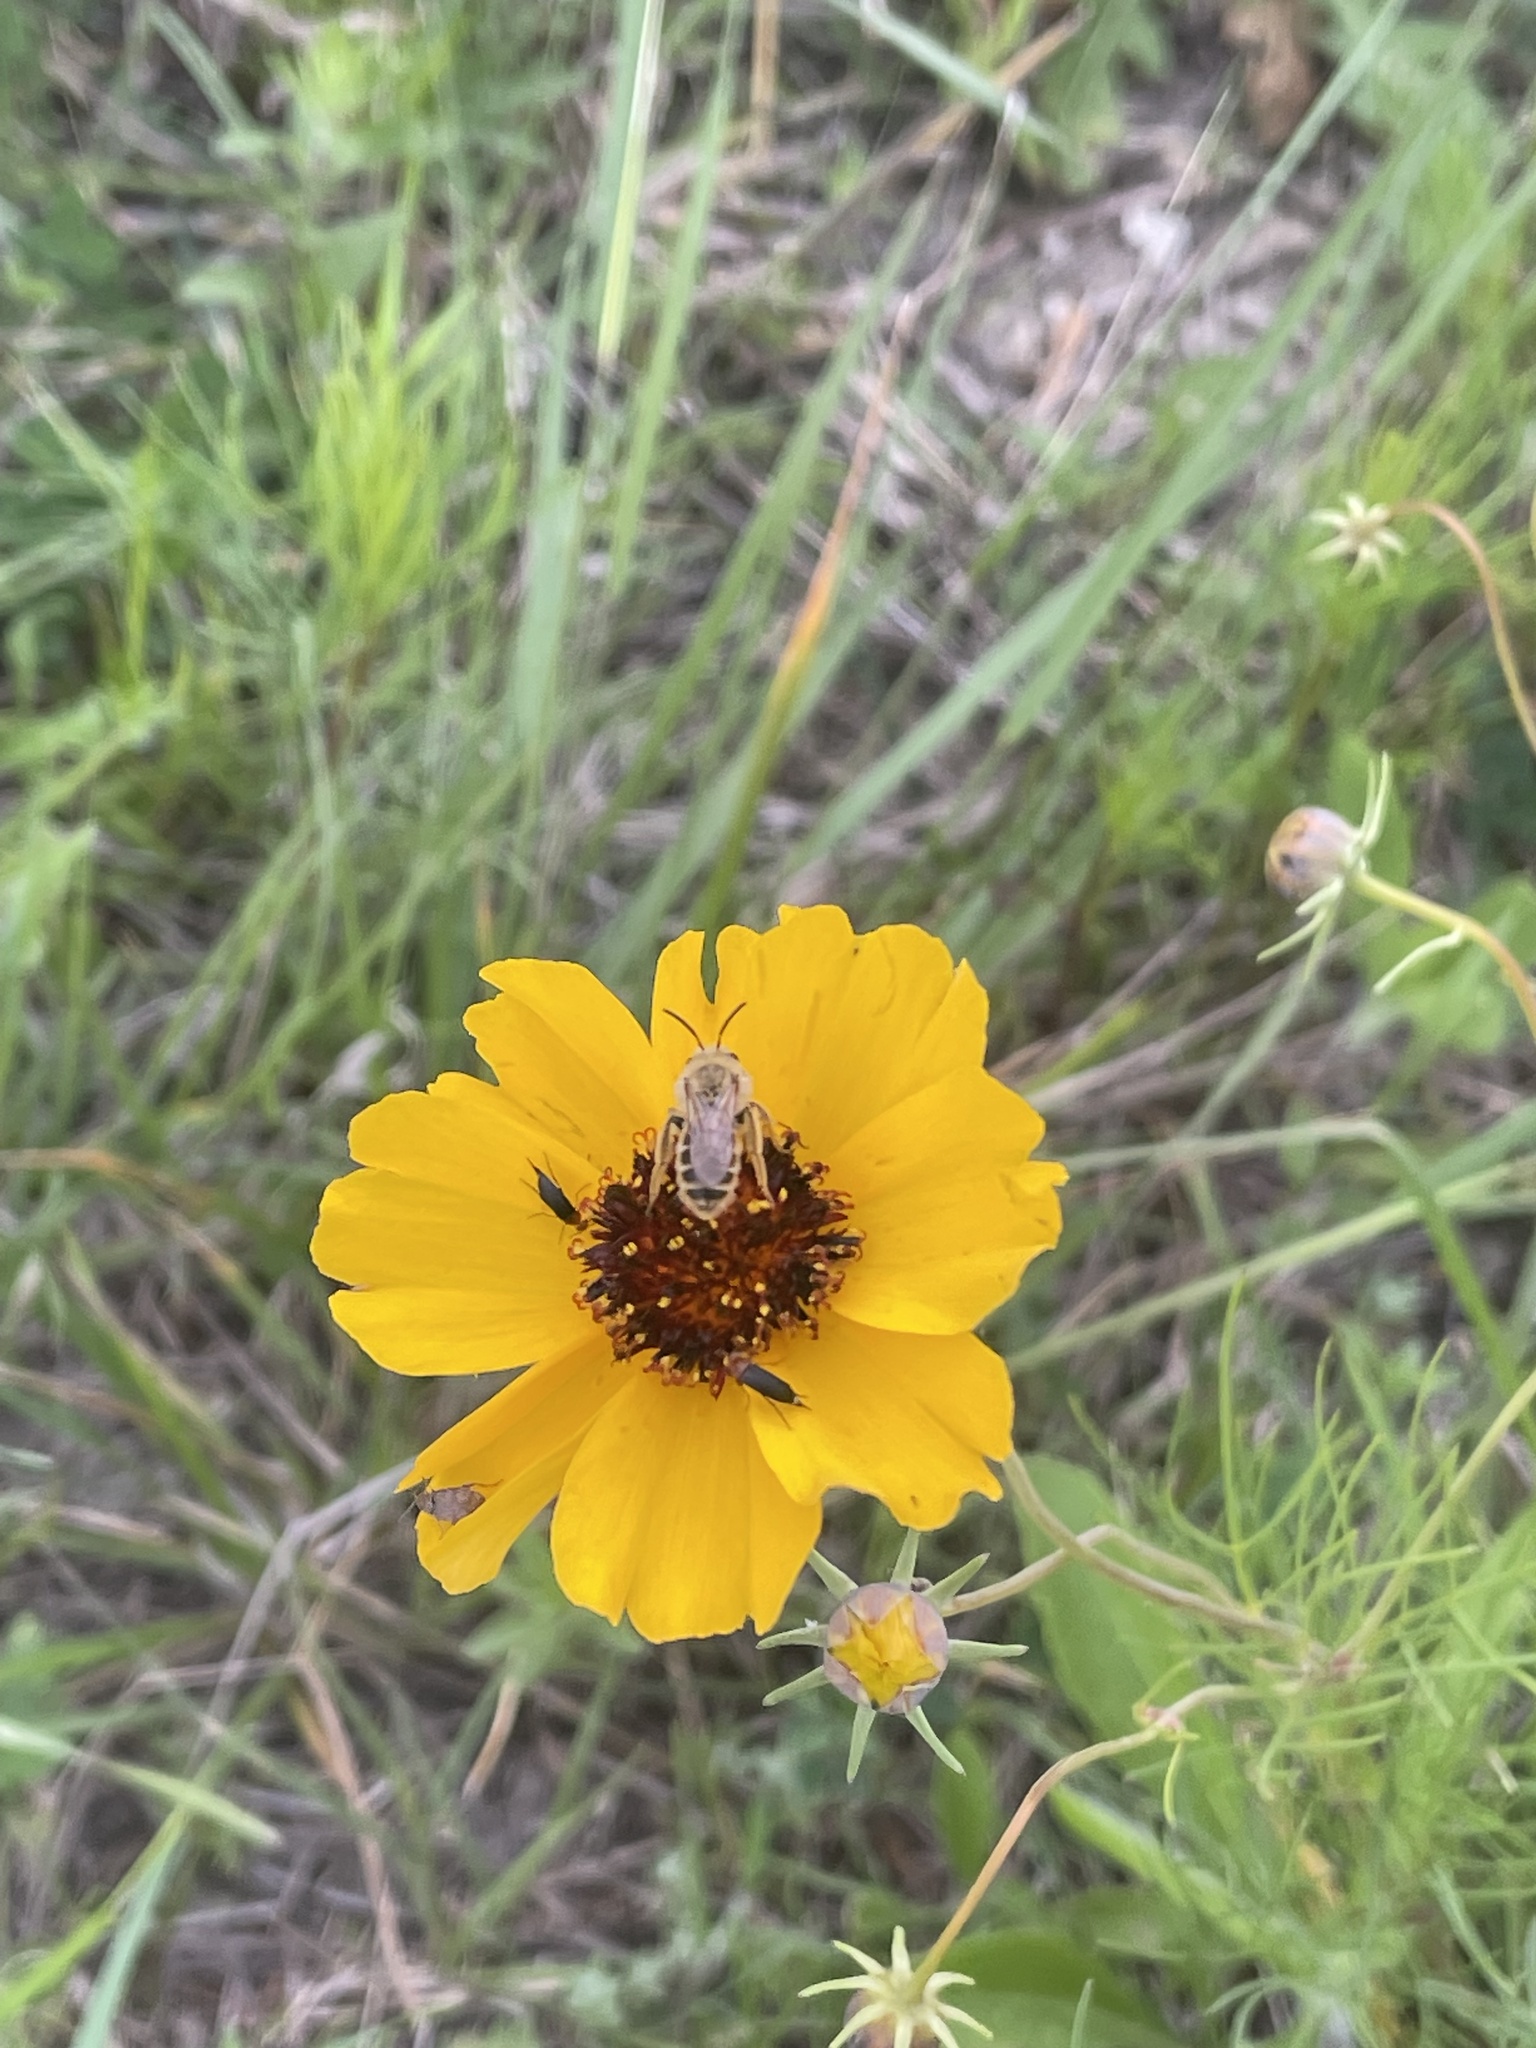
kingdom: Plantae
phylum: Tracheophyta
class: Magnoliopsida
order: Asterales
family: Asteraceae
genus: Thelesperma
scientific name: Thelesperma filifolium
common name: Stiff greenthread
